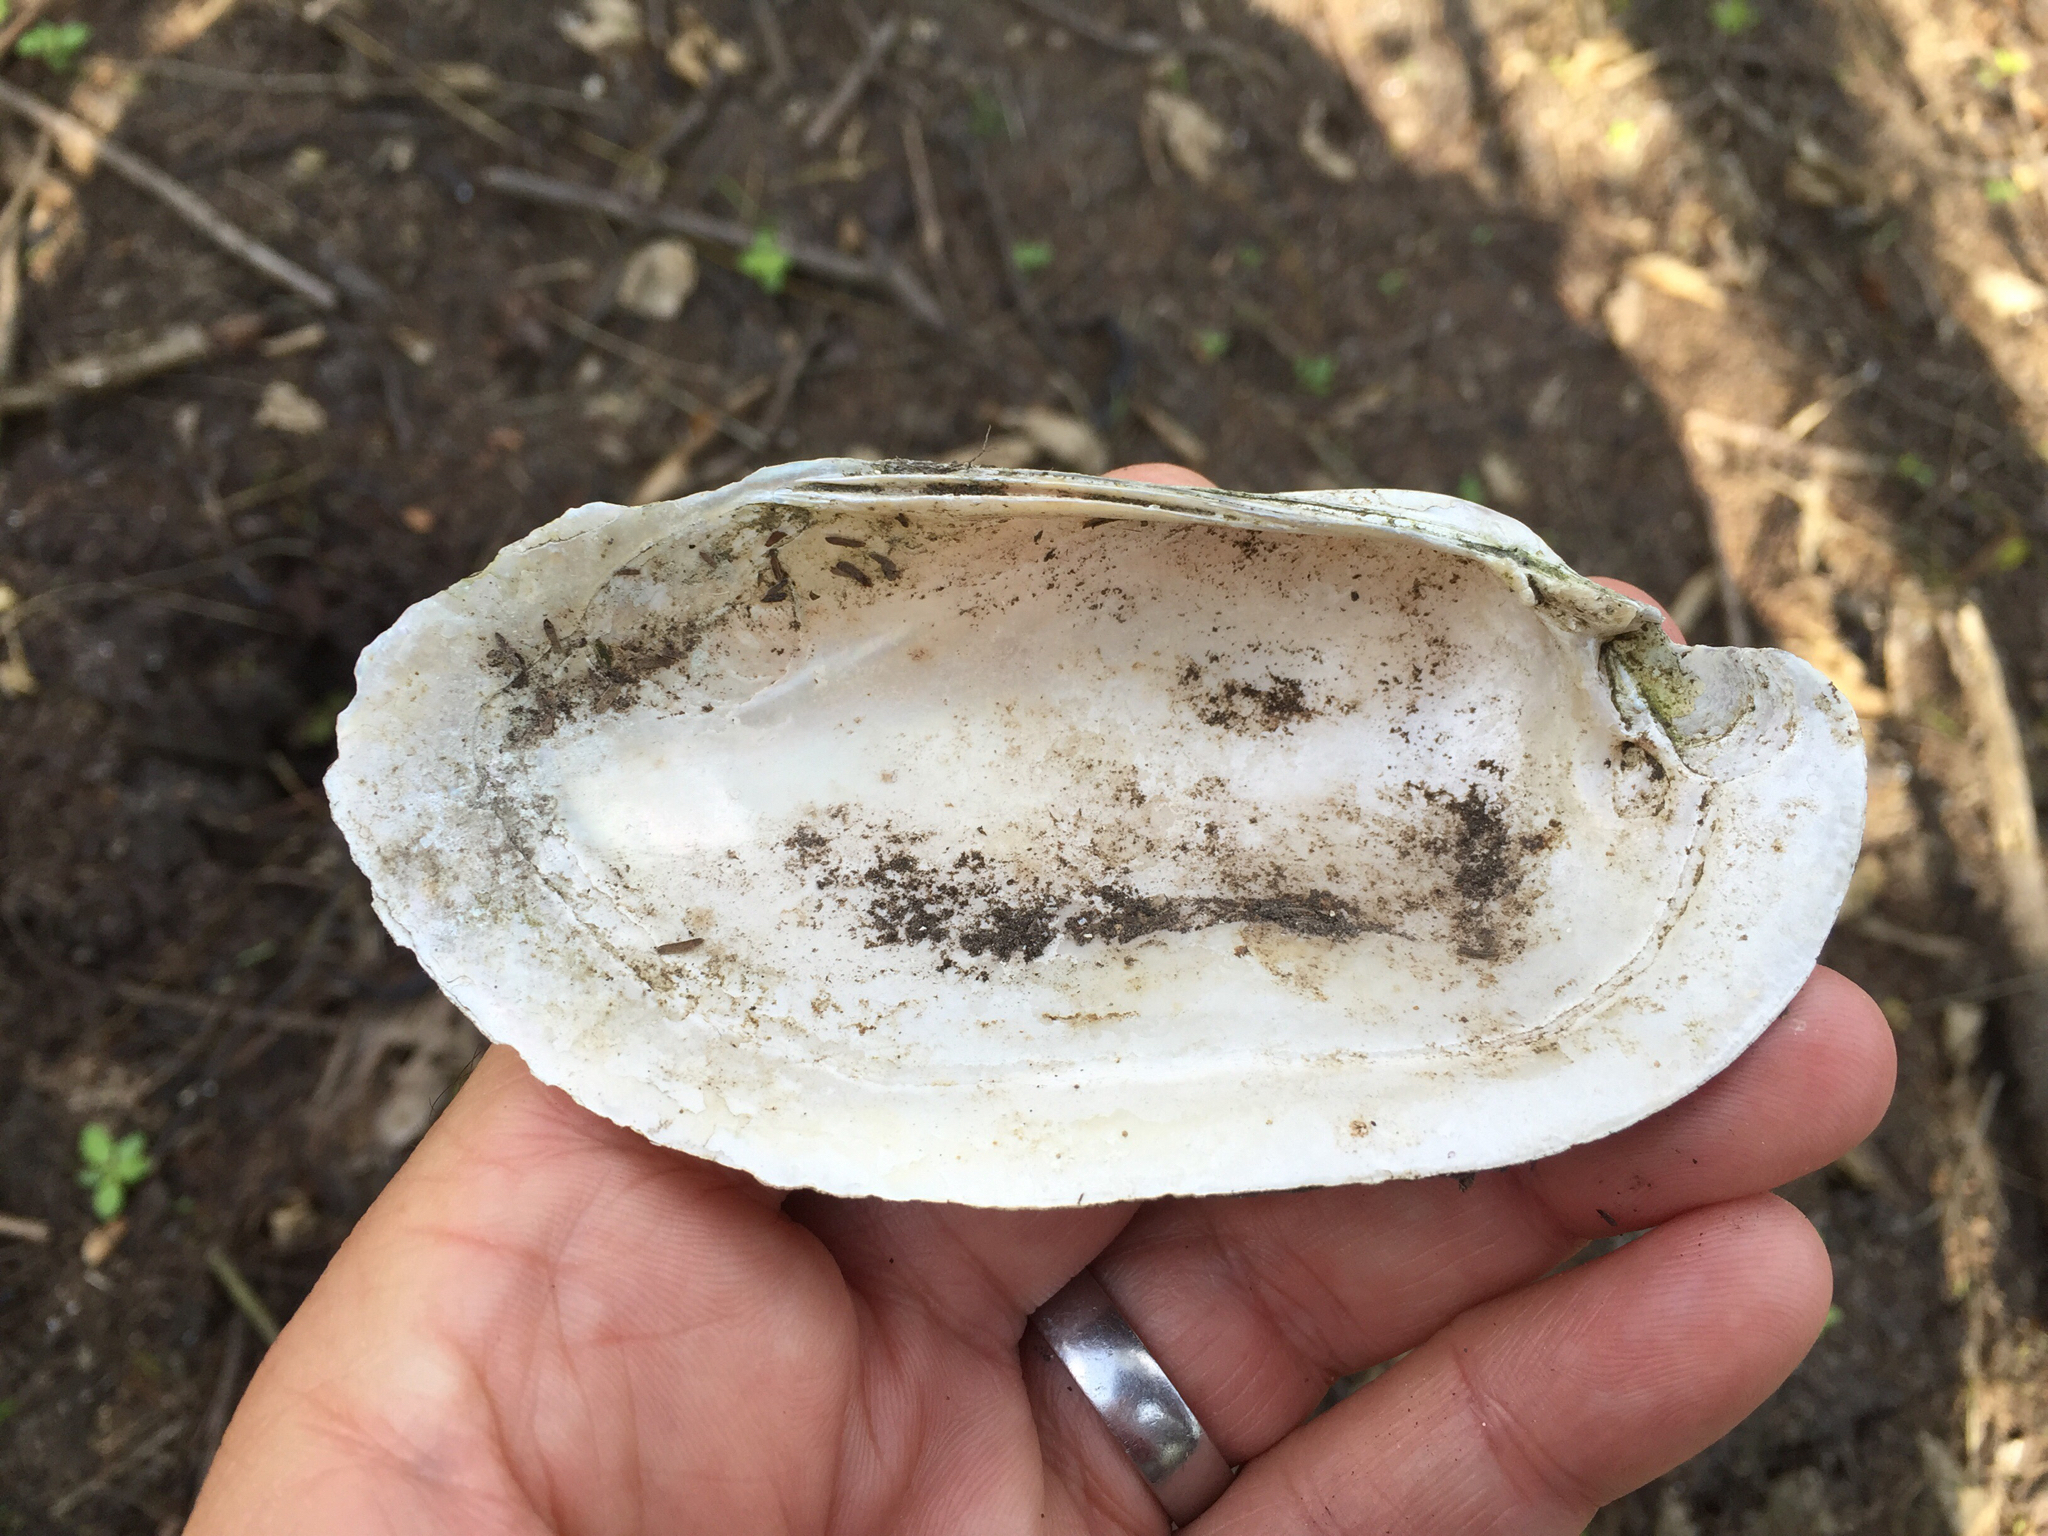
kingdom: Animalia
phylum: Mollusca
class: Bivalvia
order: Unionida
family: Unionidae
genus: Lampsilis
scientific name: Lampsilis teres
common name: Yellow sandshell
